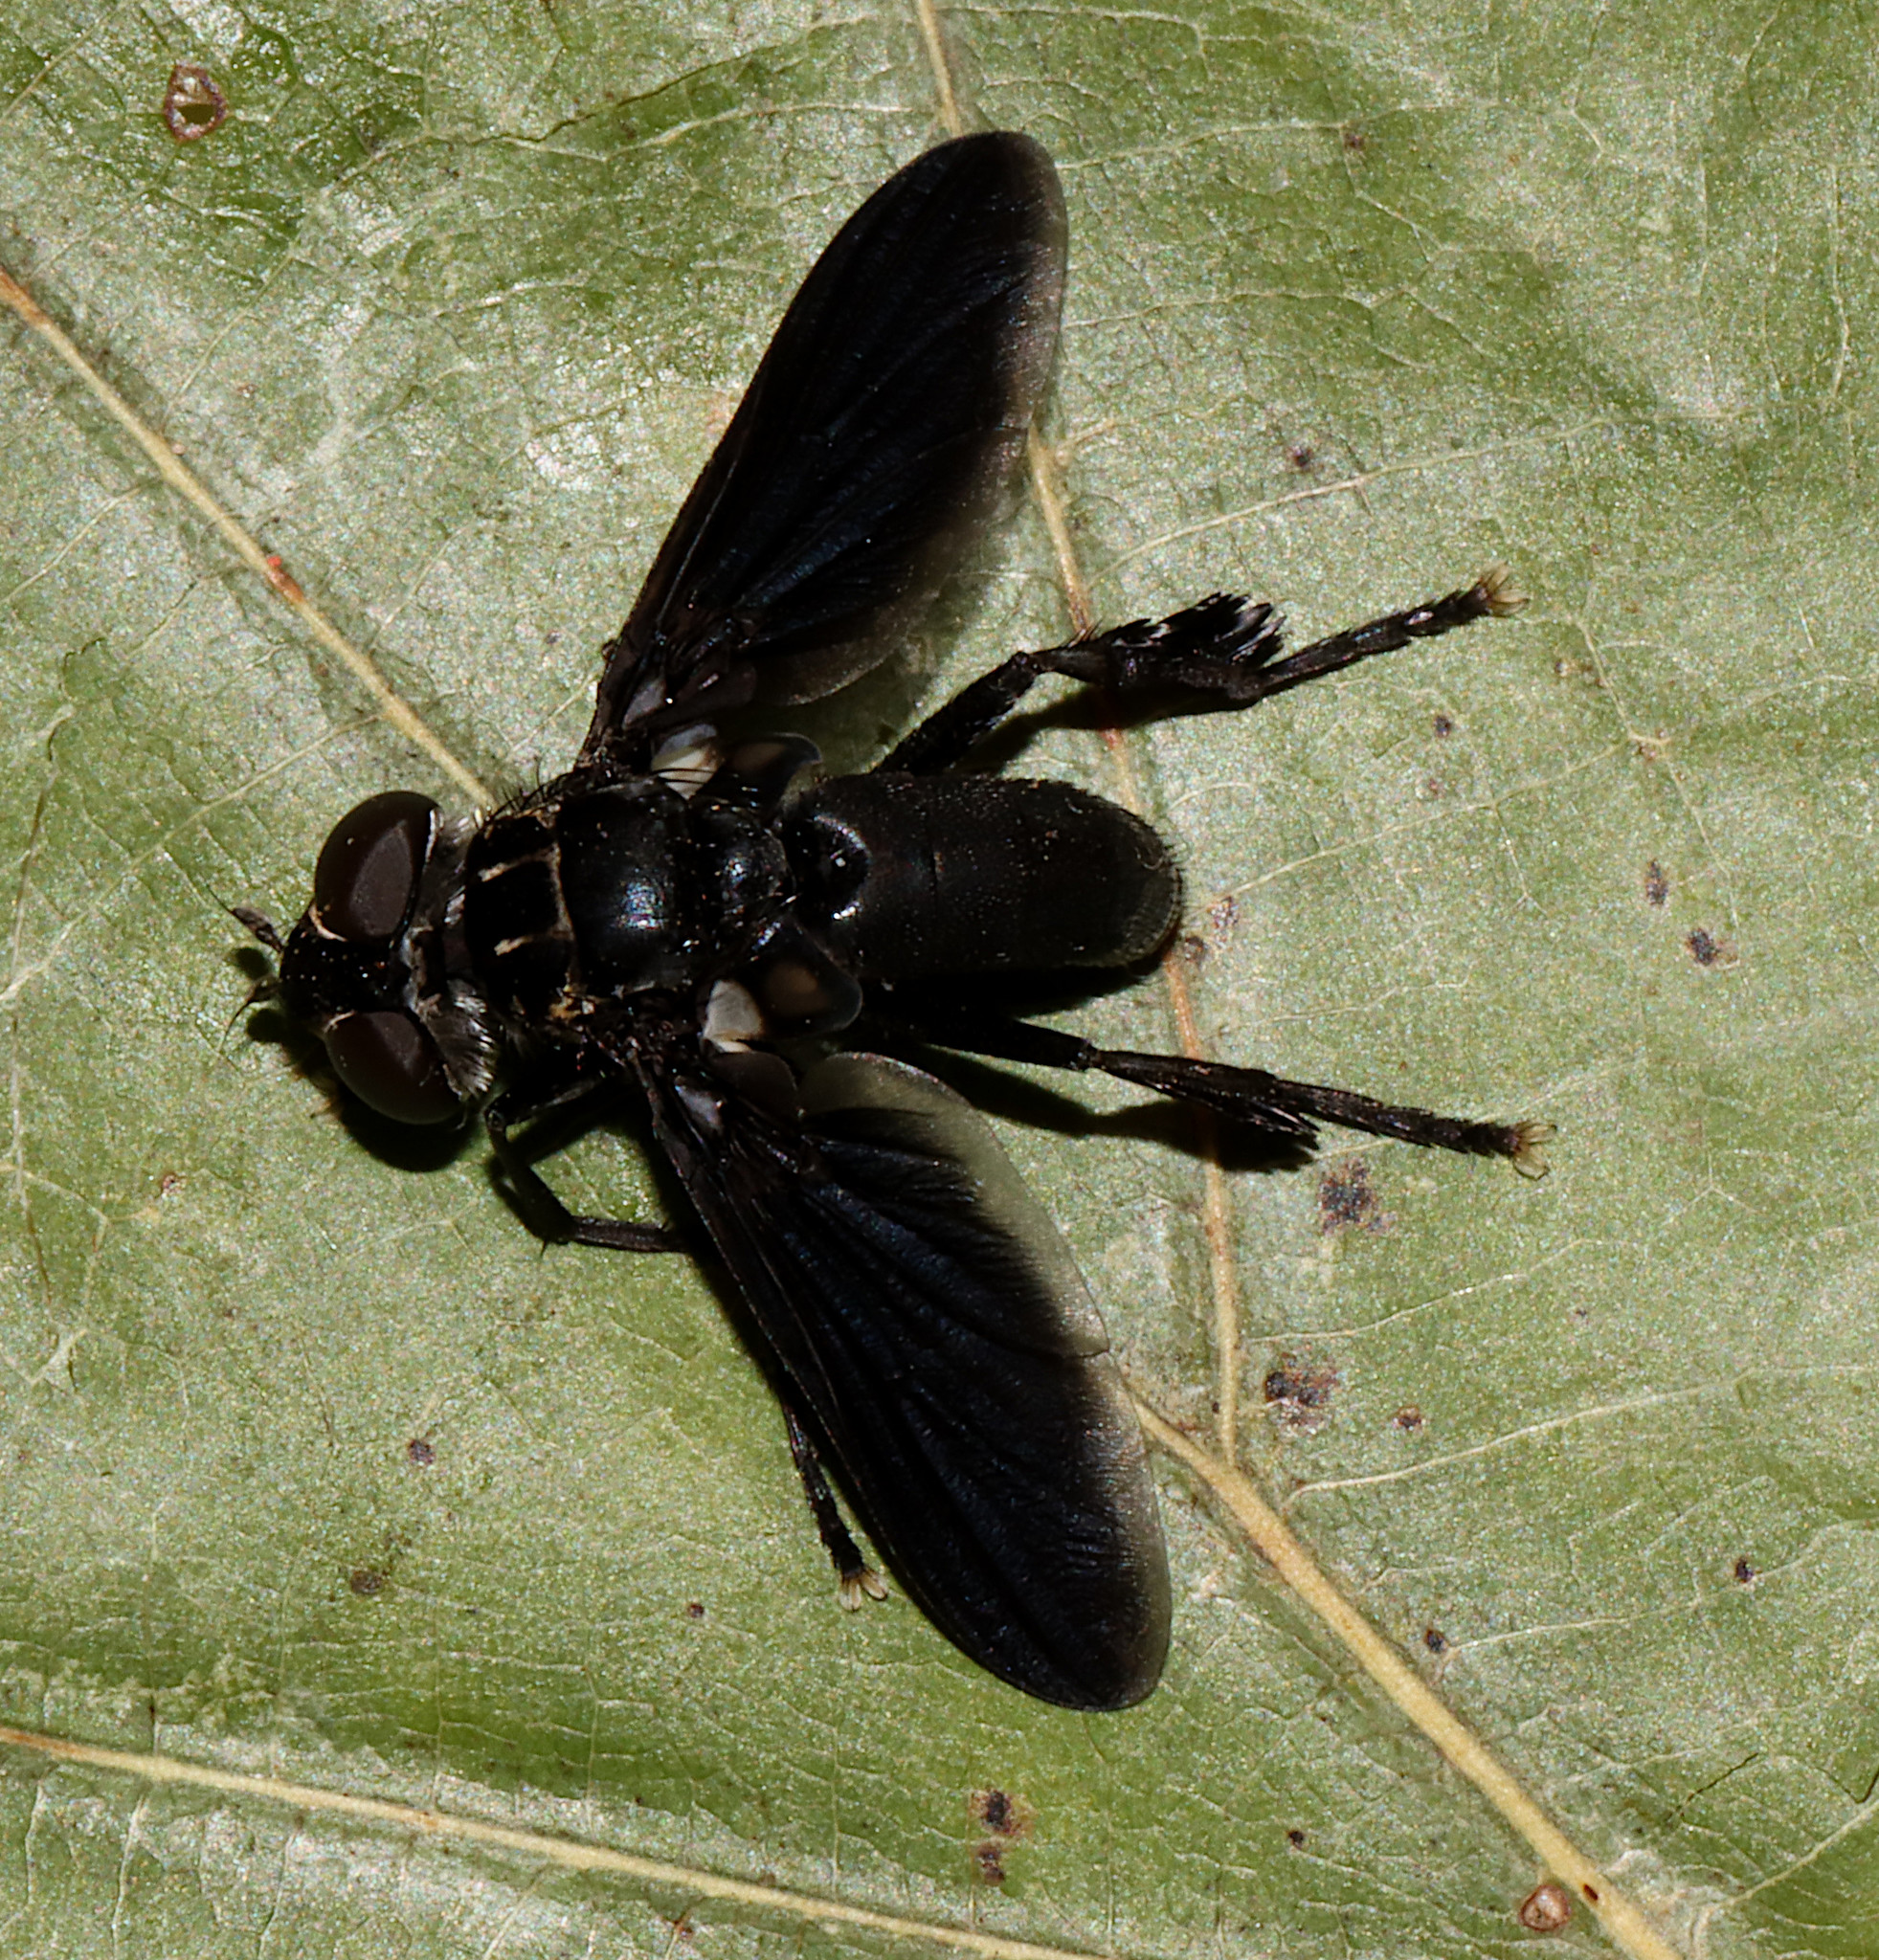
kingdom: Animalia
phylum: Arthropoda
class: Insecta
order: Diptera
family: Tachinidae
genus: Trichopoda
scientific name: Trichopoda lanipes
